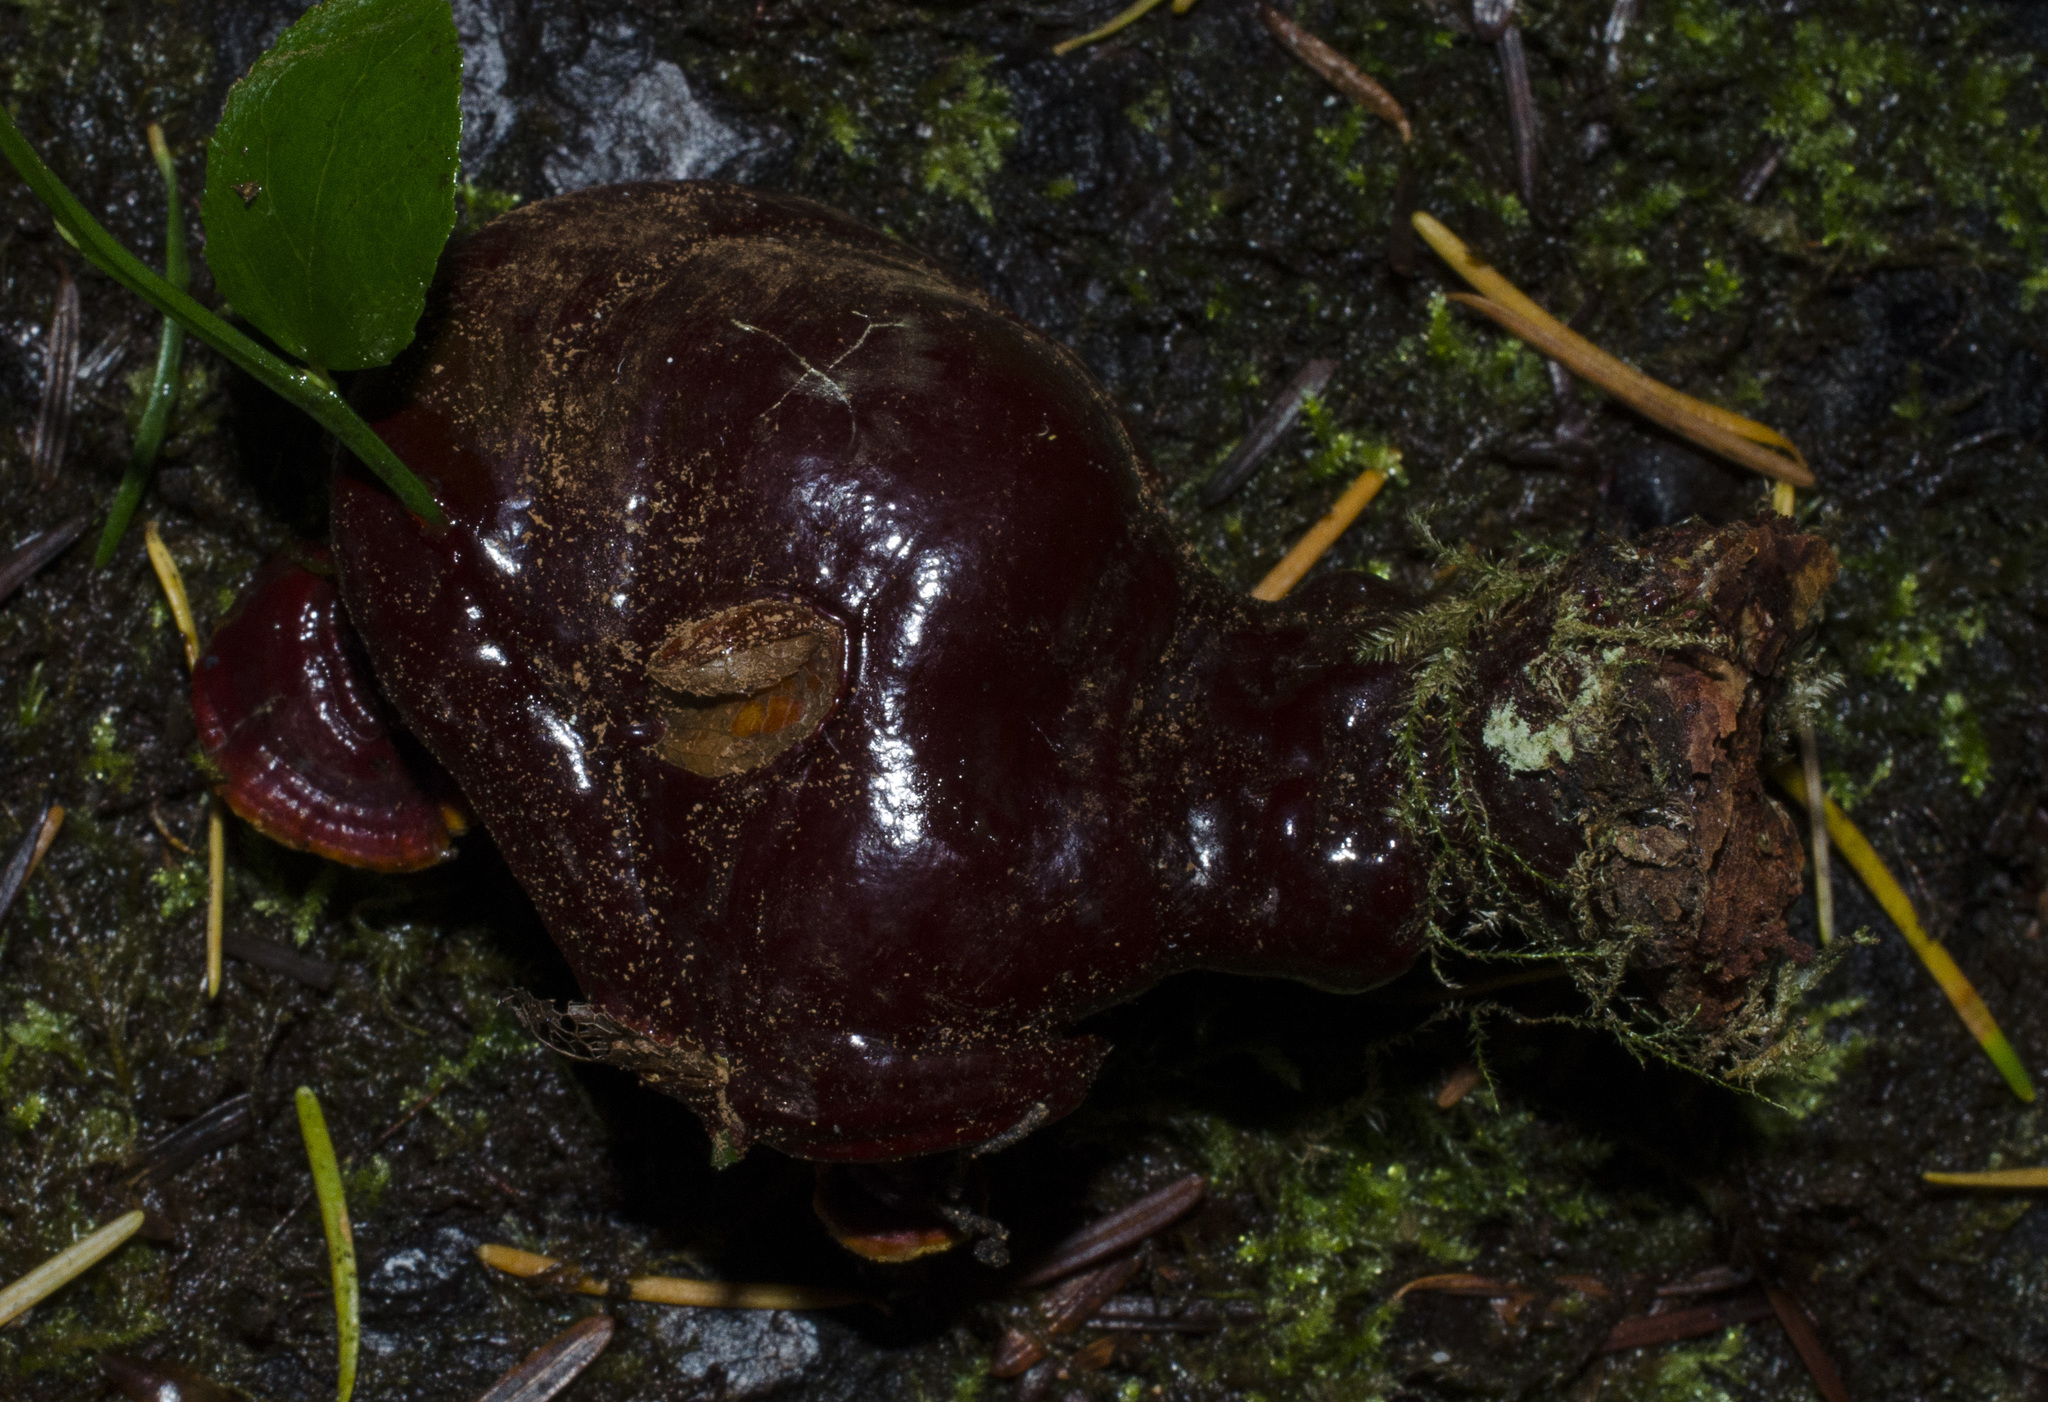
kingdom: Fungi
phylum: Basidiomycota
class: Agaricomycetes
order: Polyporales
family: Polyporaceae
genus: Ganoderma
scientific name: Ganoderma oregonense
